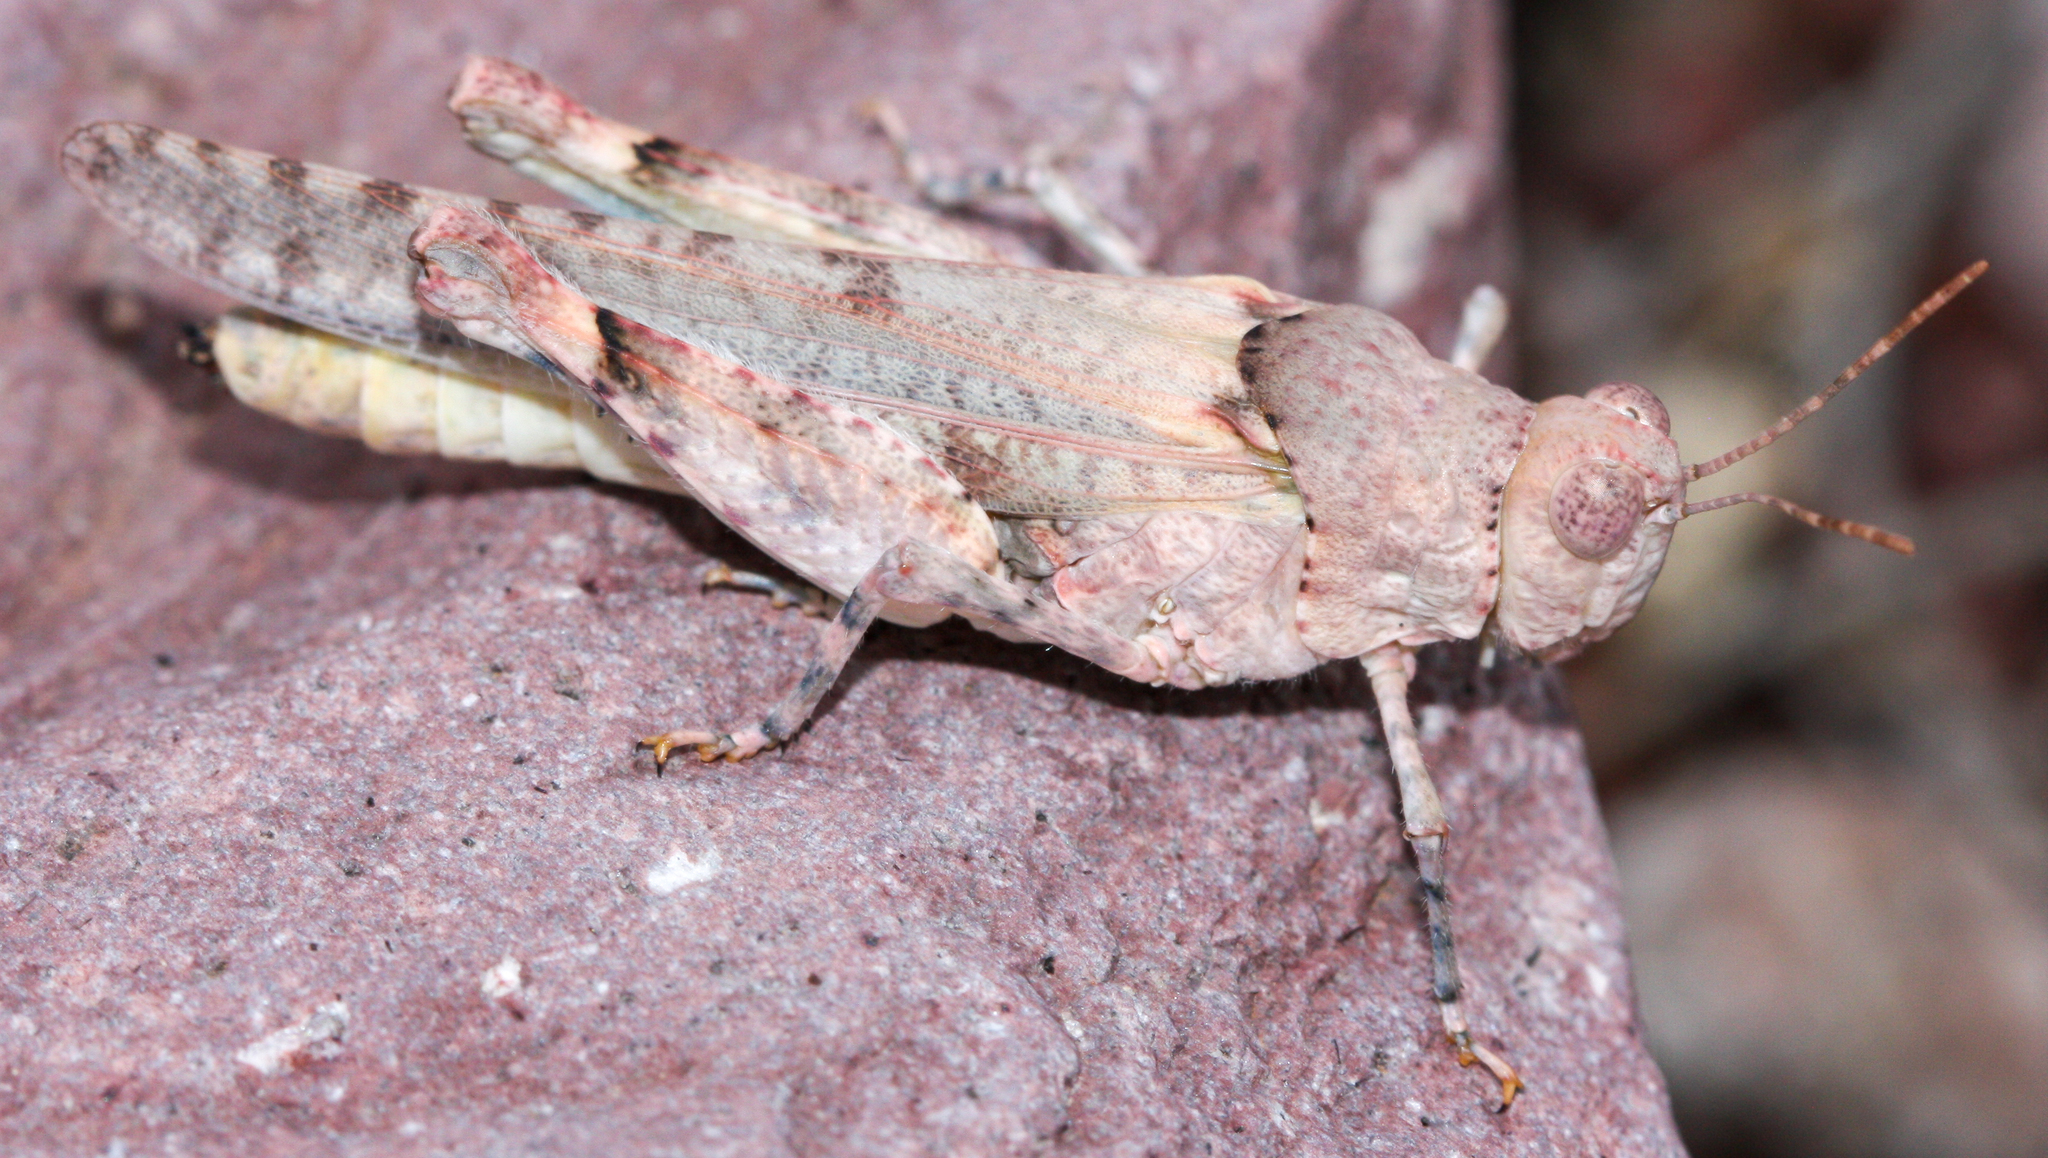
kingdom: Animalia
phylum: Arthropoda
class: Insecta
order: Orthoptera
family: Acrididae
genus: Cibolacris
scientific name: Cibolacris parviceps
